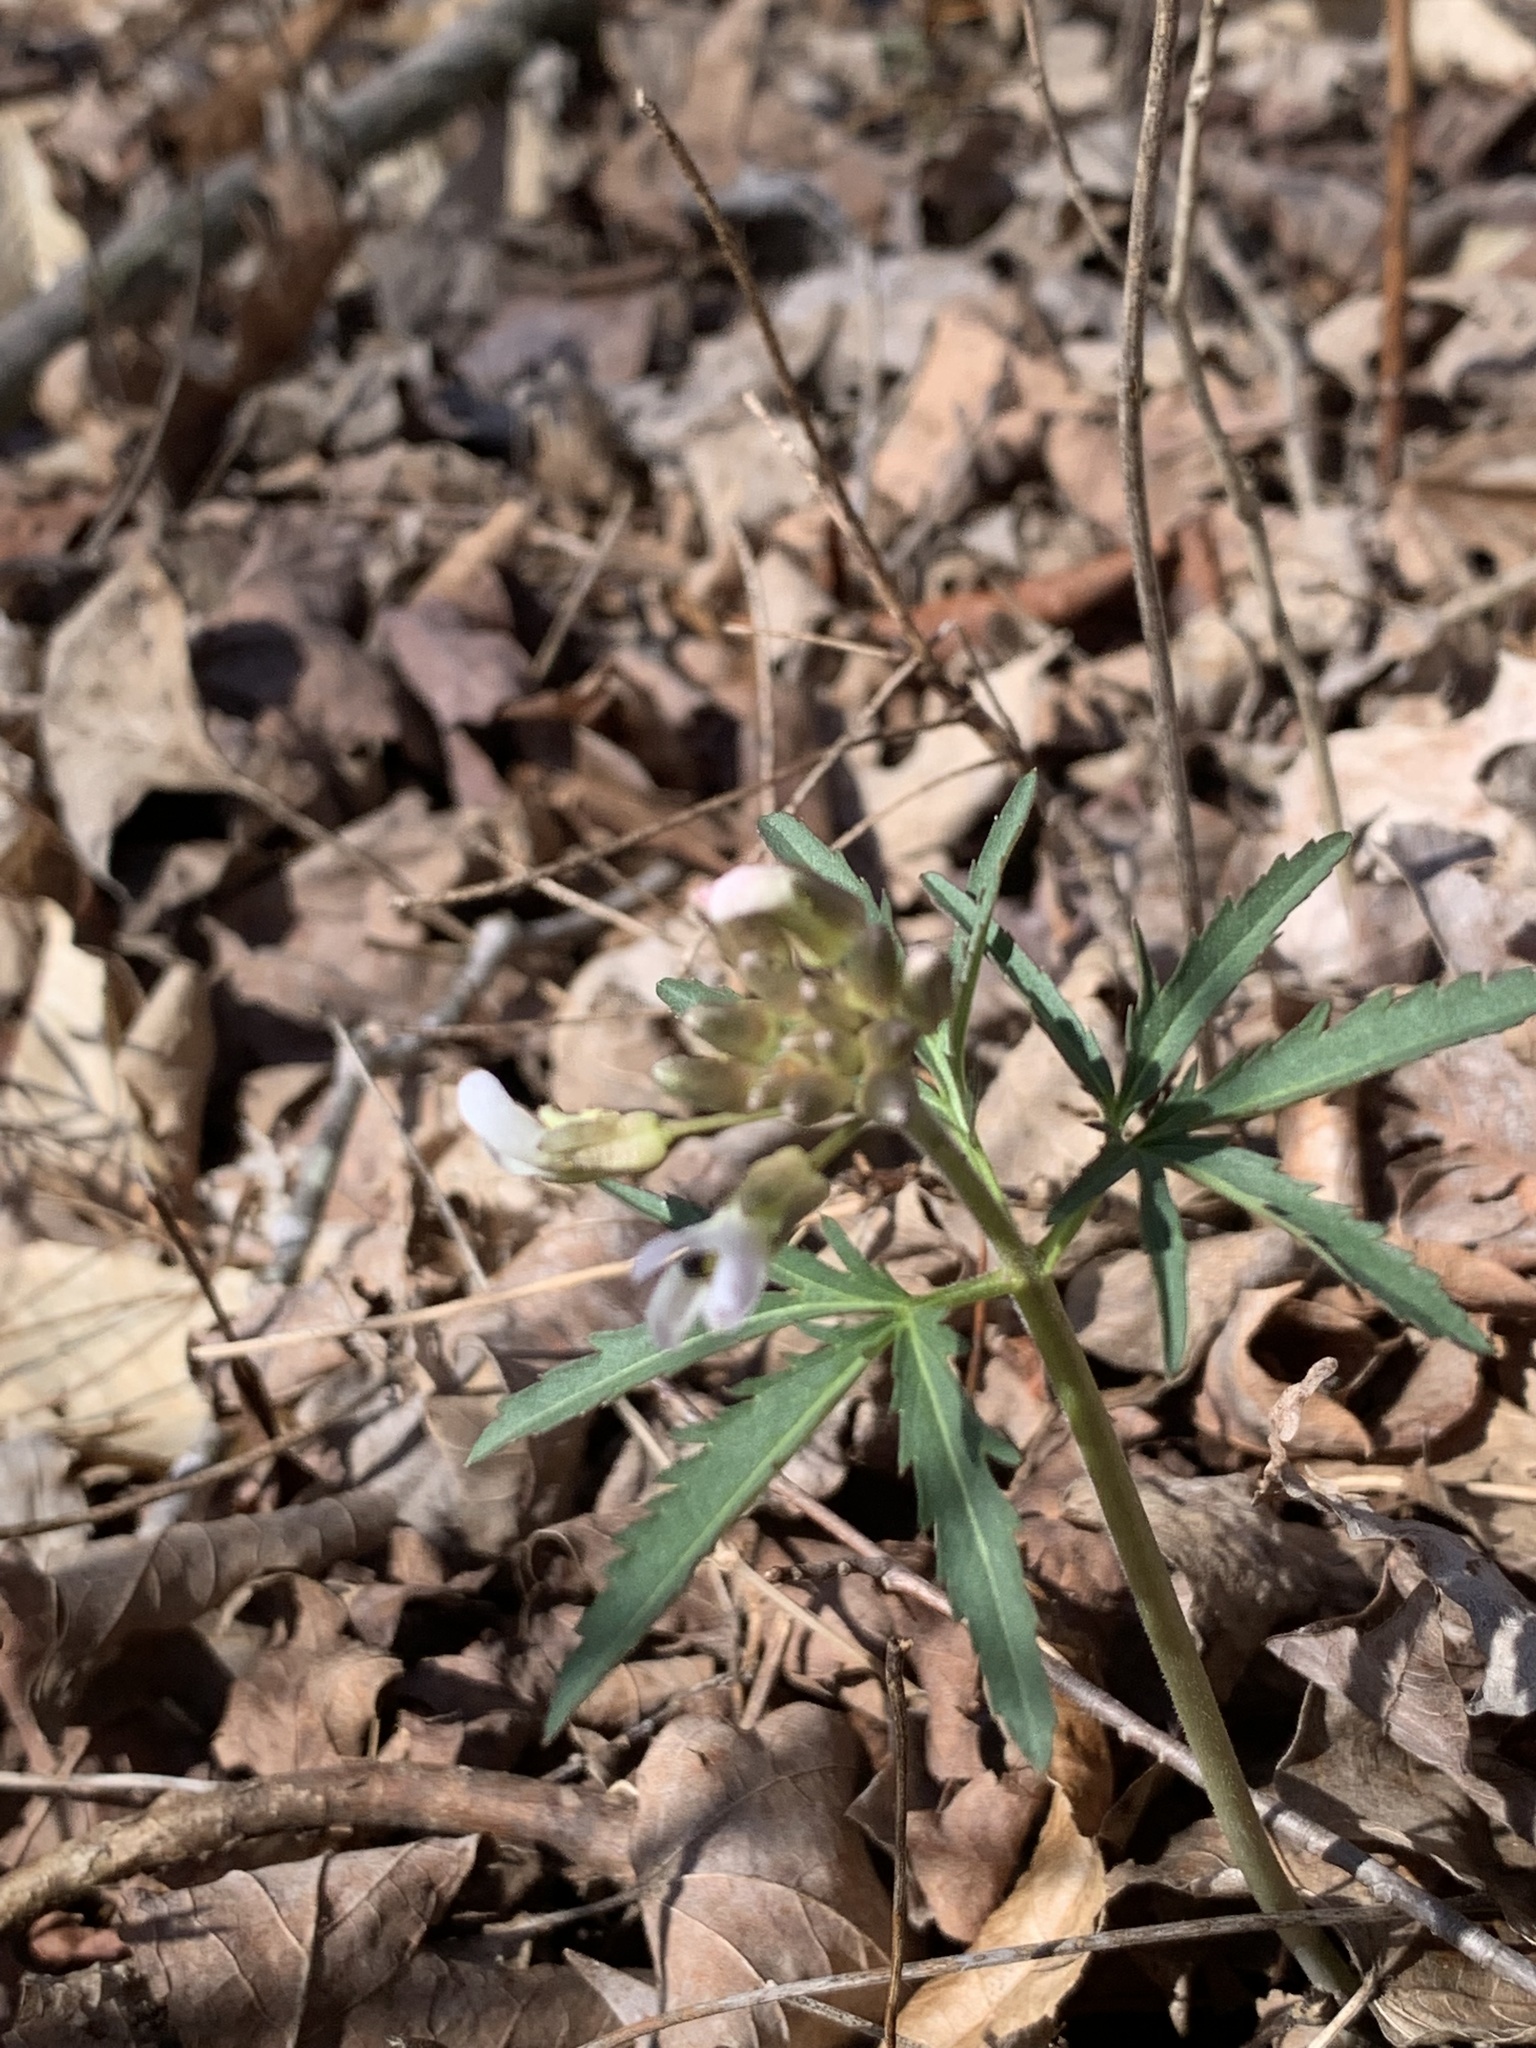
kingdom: Plantae
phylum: Tracheophyta
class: Magnoliopsida
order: Brassicales
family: Brassicaceae
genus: Cardamine
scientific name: Cardamine concatenata
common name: Cut-leaf toothcup
